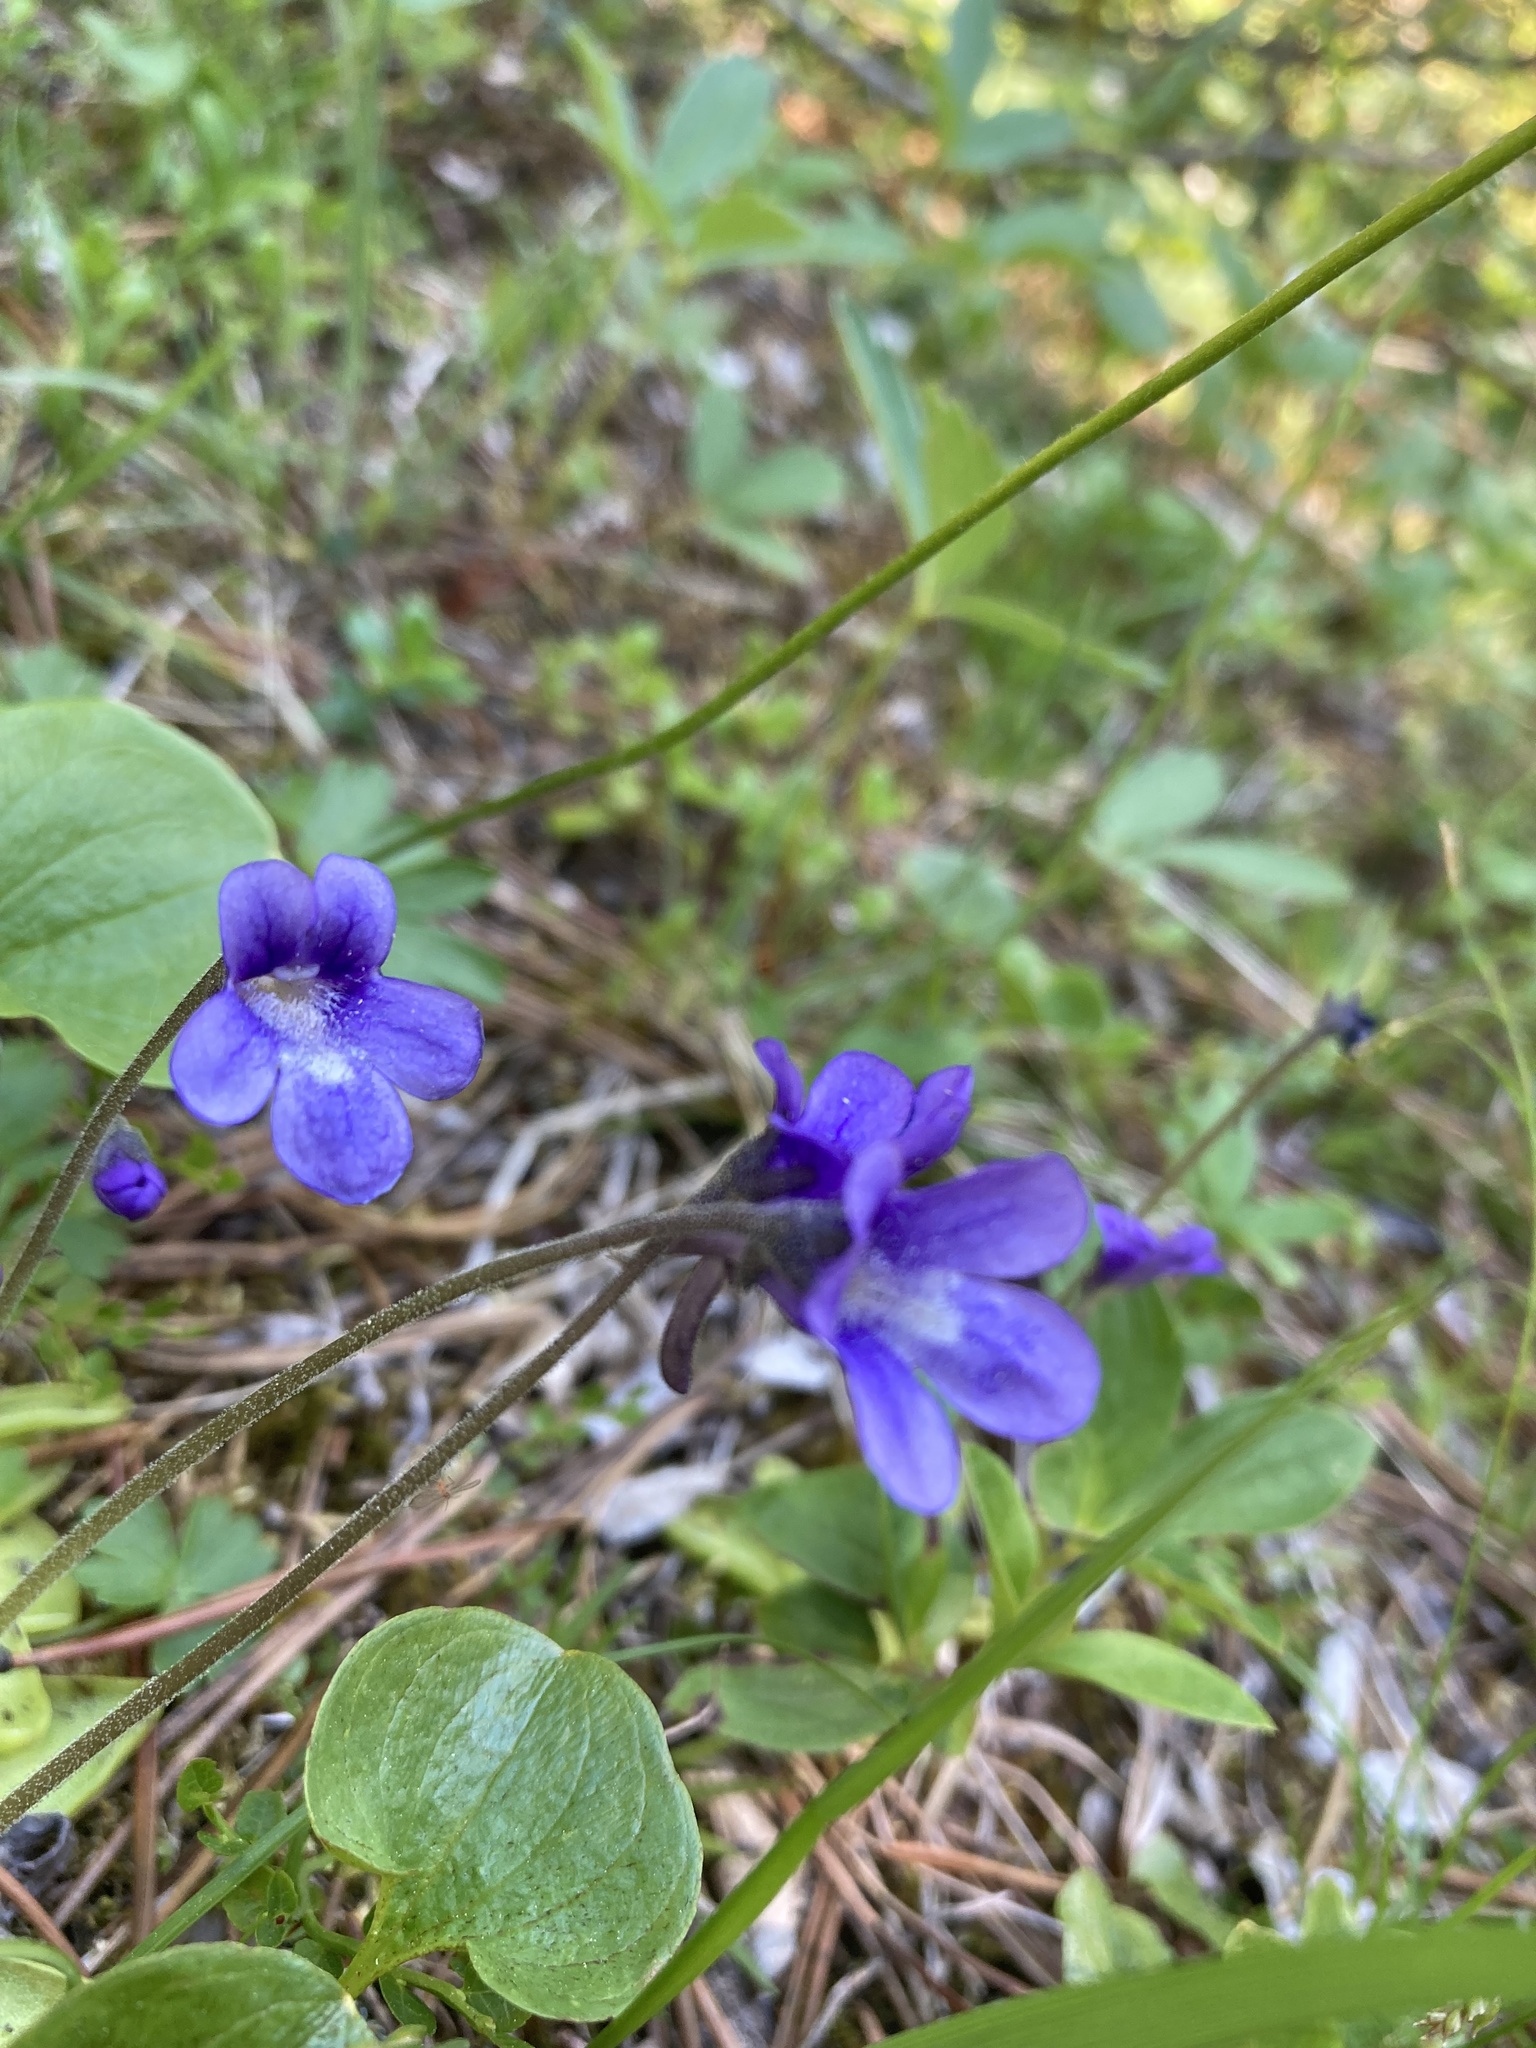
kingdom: Plantae
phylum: Tracheophyta
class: Magnoliopsida
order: Lamiales
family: Lentibulariaceae
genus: Pinguicula
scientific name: Pinguicula vulgaris
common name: Common butterwort
